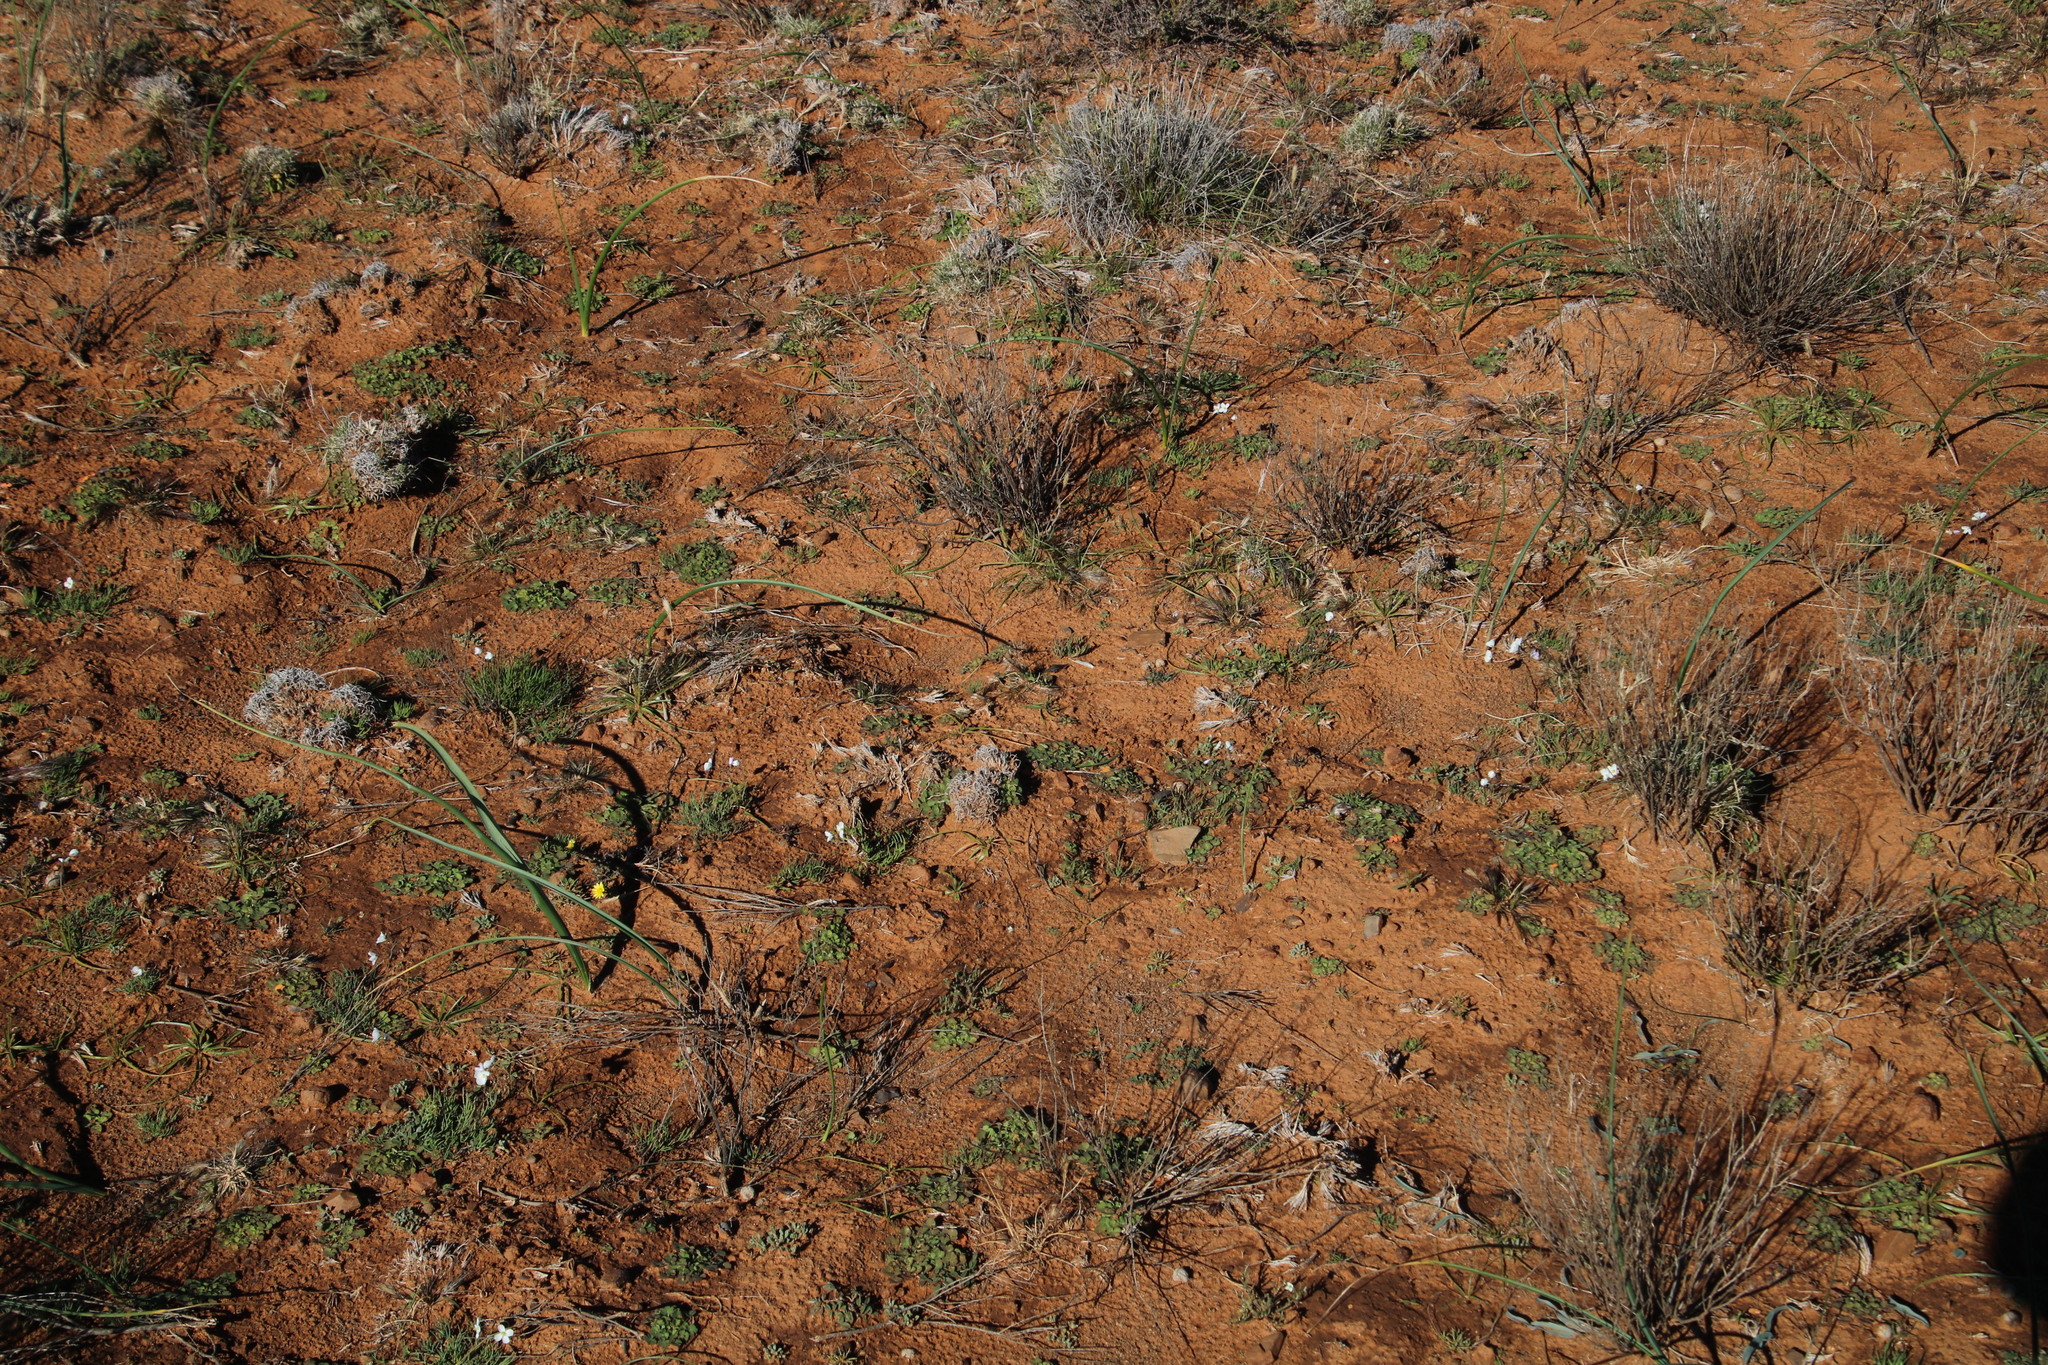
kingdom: Plantae
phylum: Tracheophyta
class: Magnoliopsida
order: Brassicales
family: Brassicaceae
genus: Heliophila
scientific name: Heliophila crithmifolia
